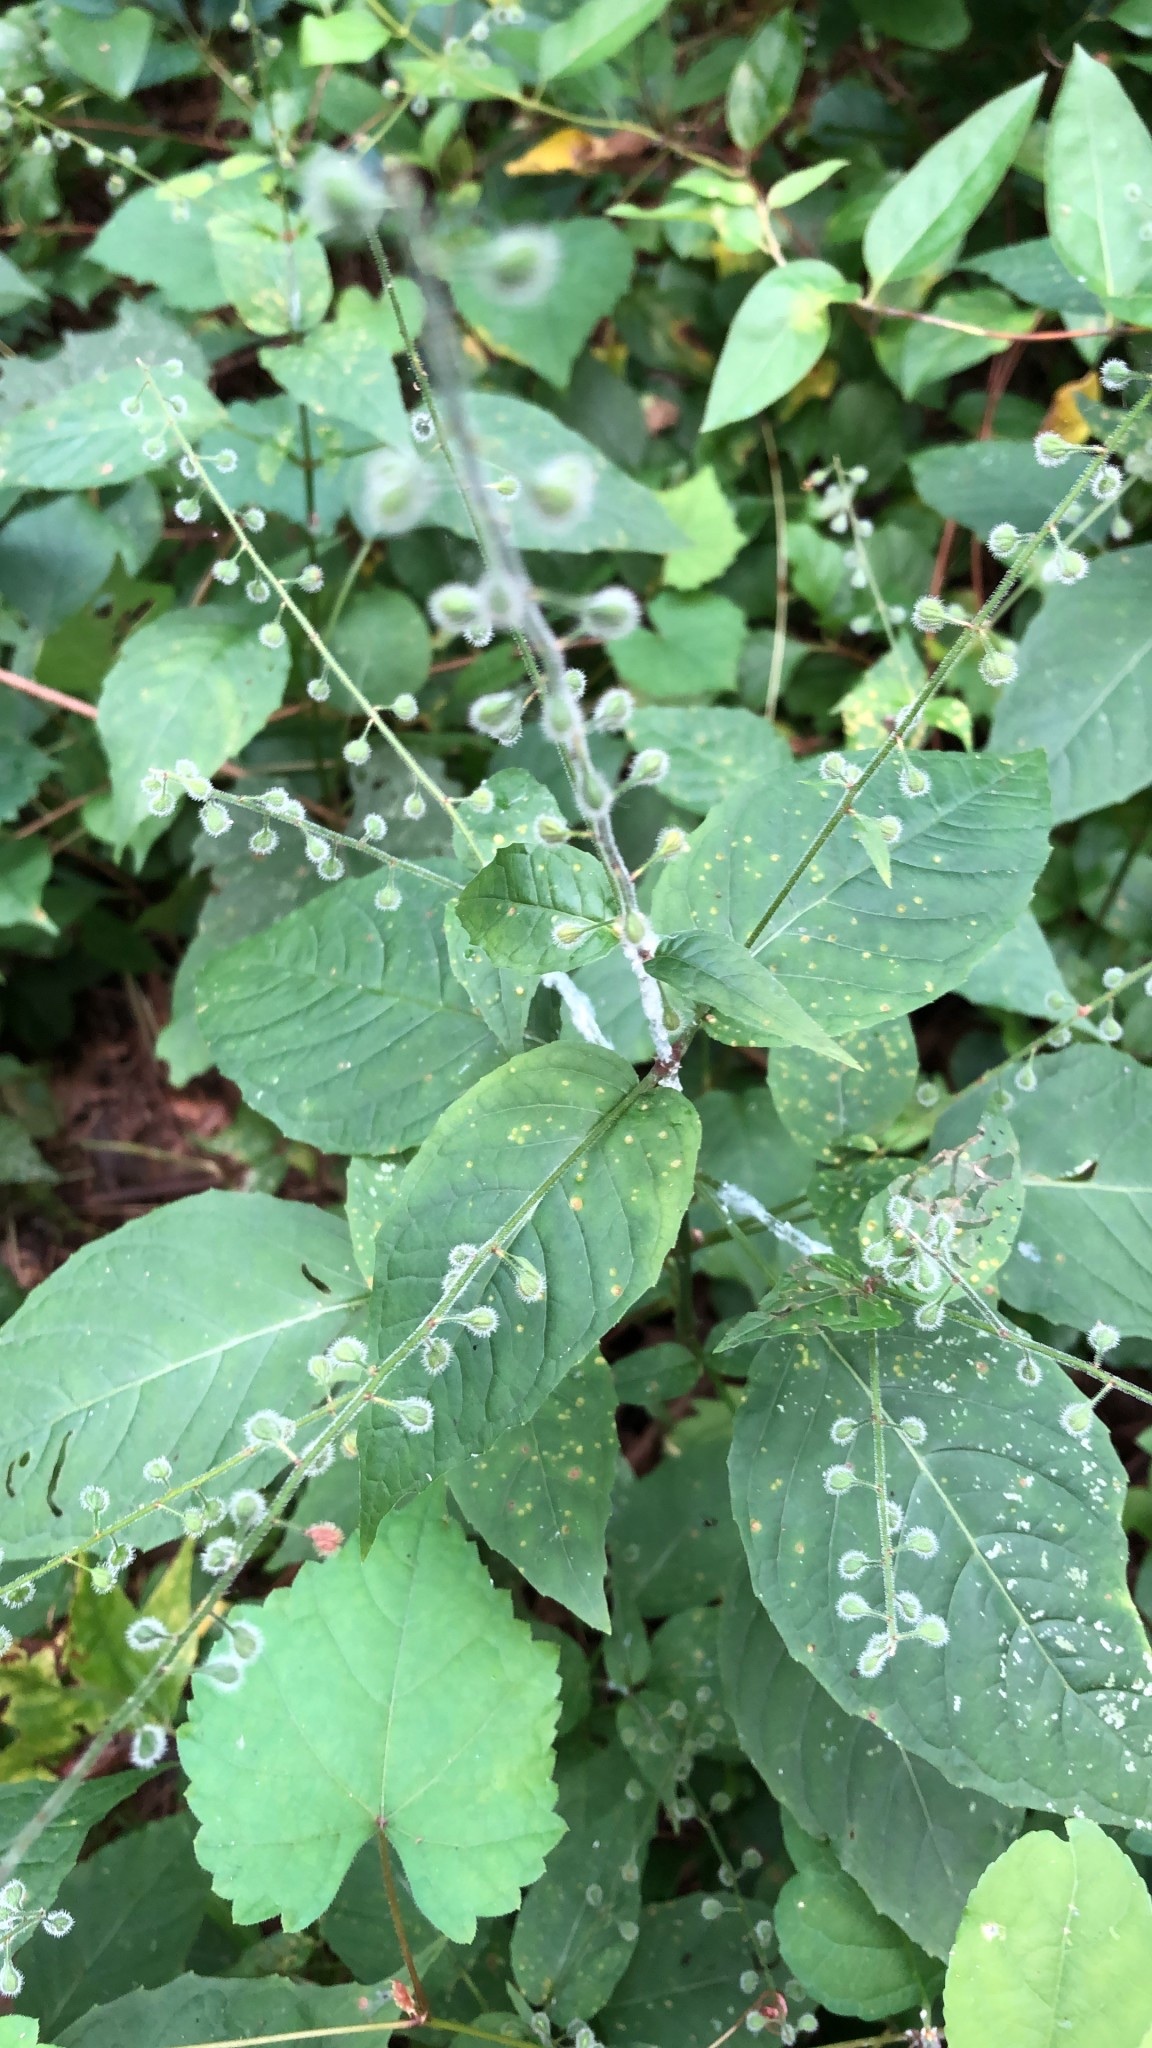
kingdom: Plantae
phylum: Tracheophyta
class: Magnoliopsida
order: Myrtales
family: Onagraceae
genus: Circaea
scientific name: Circaea canadensis
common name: Broad-leaved enchanter's nightshade
